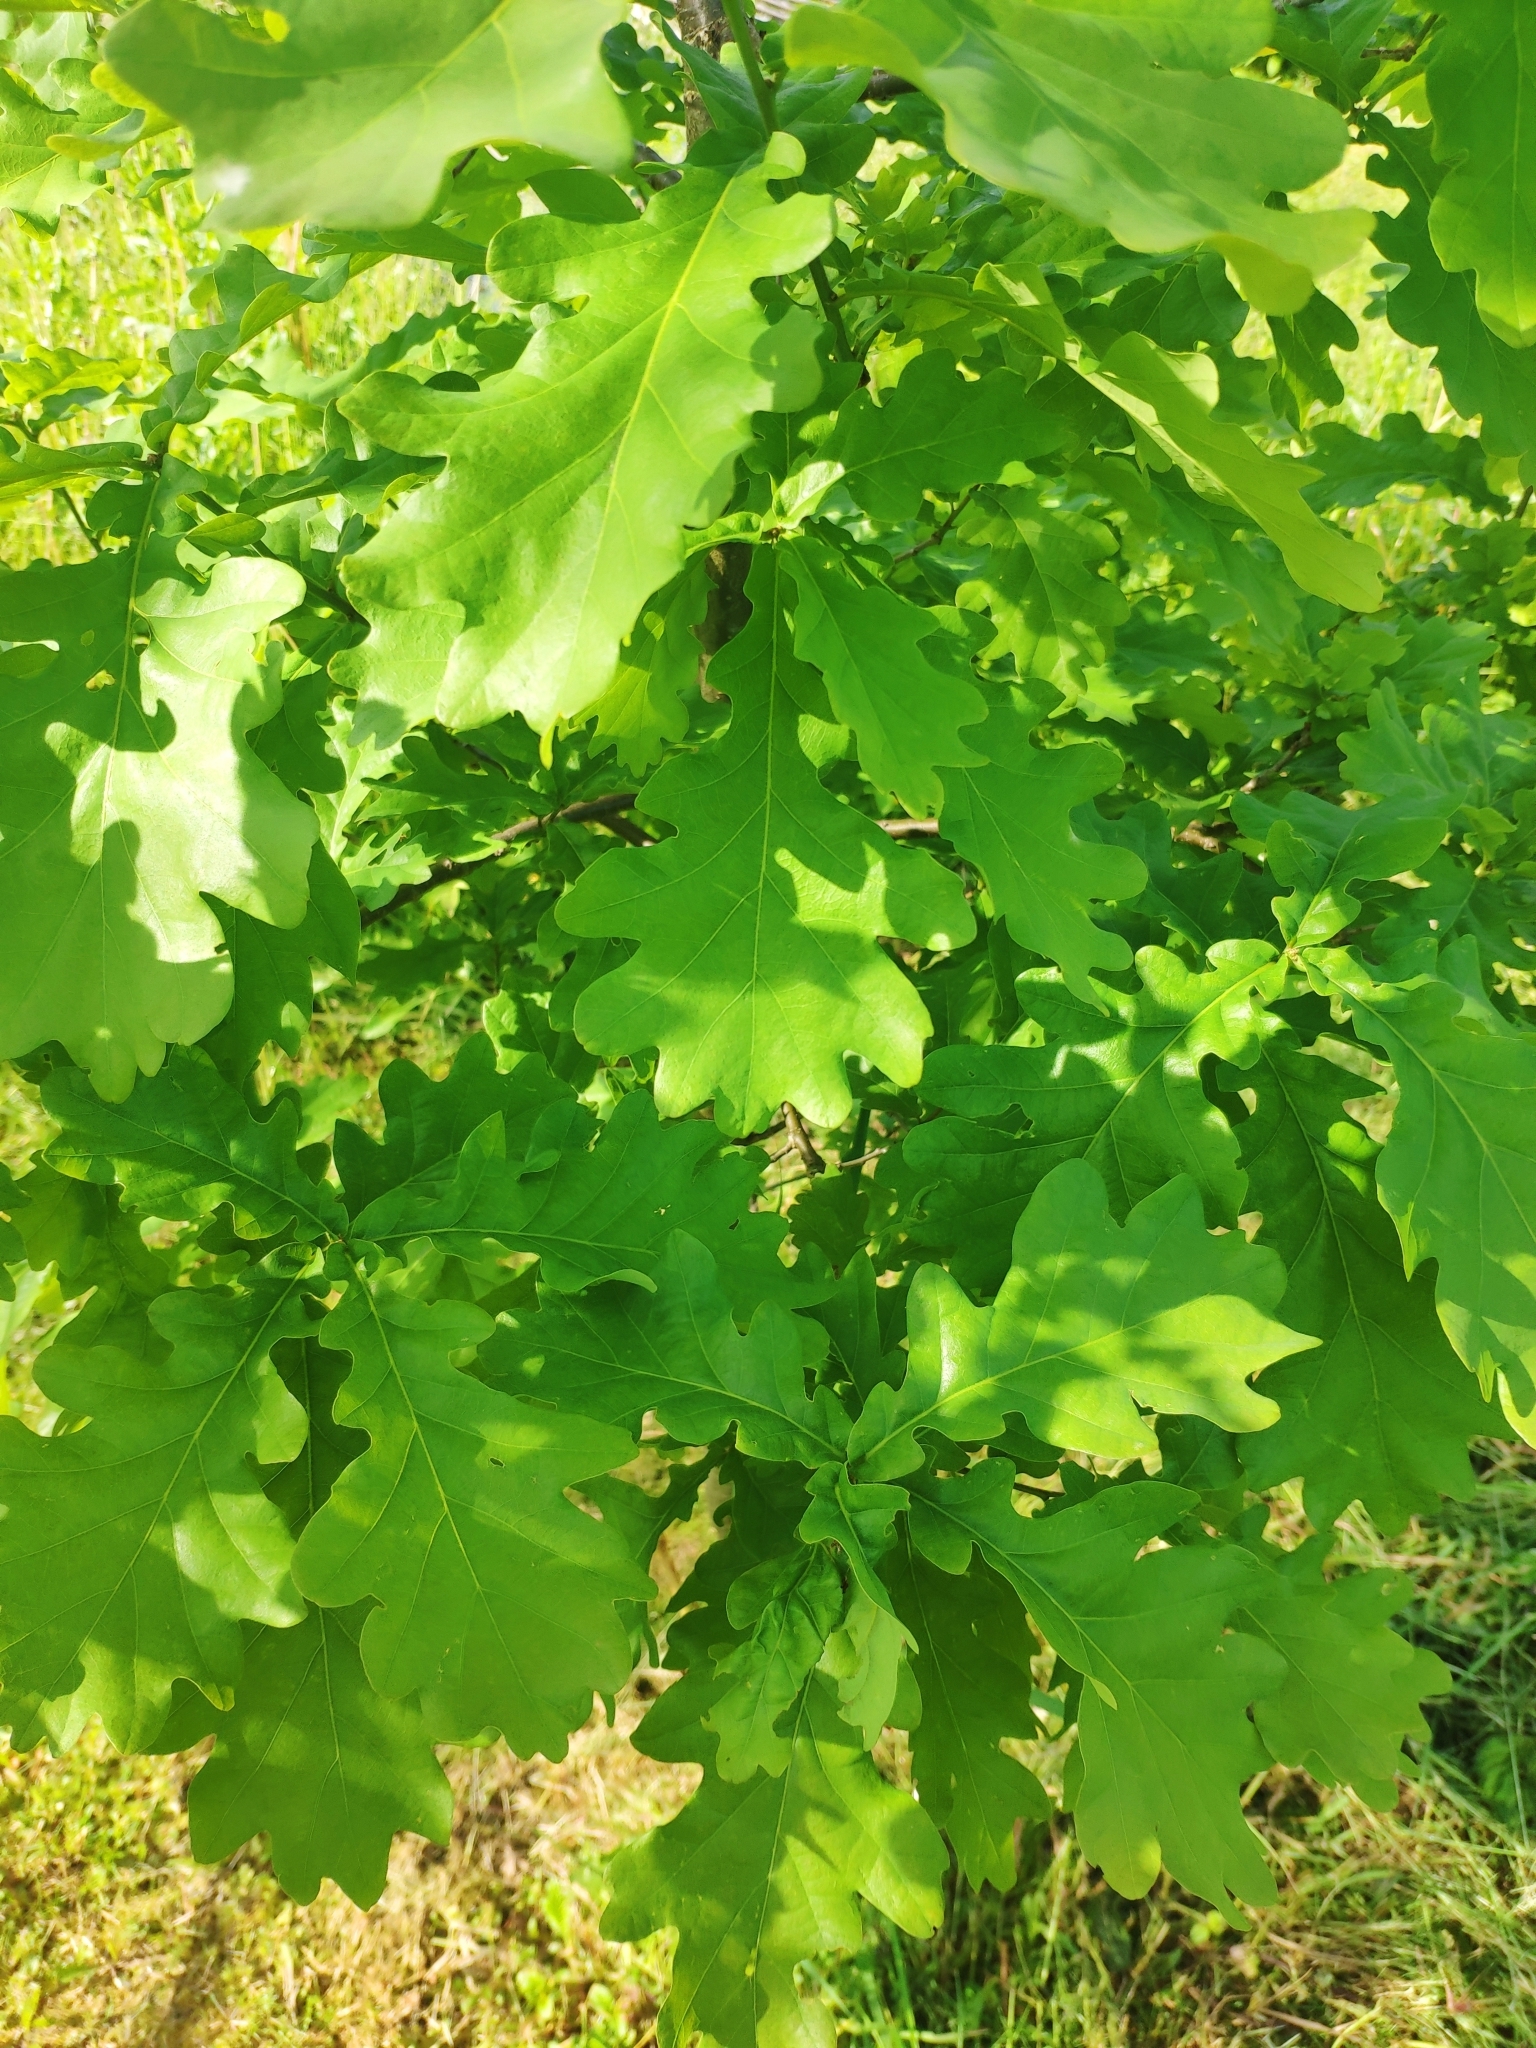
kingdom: Plantae
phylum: Tracheophyta
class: Magnoliopsida
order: Fagales
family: Fagaceae
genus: Quercus
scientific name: Quercus robur
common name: Pedunculate oak
